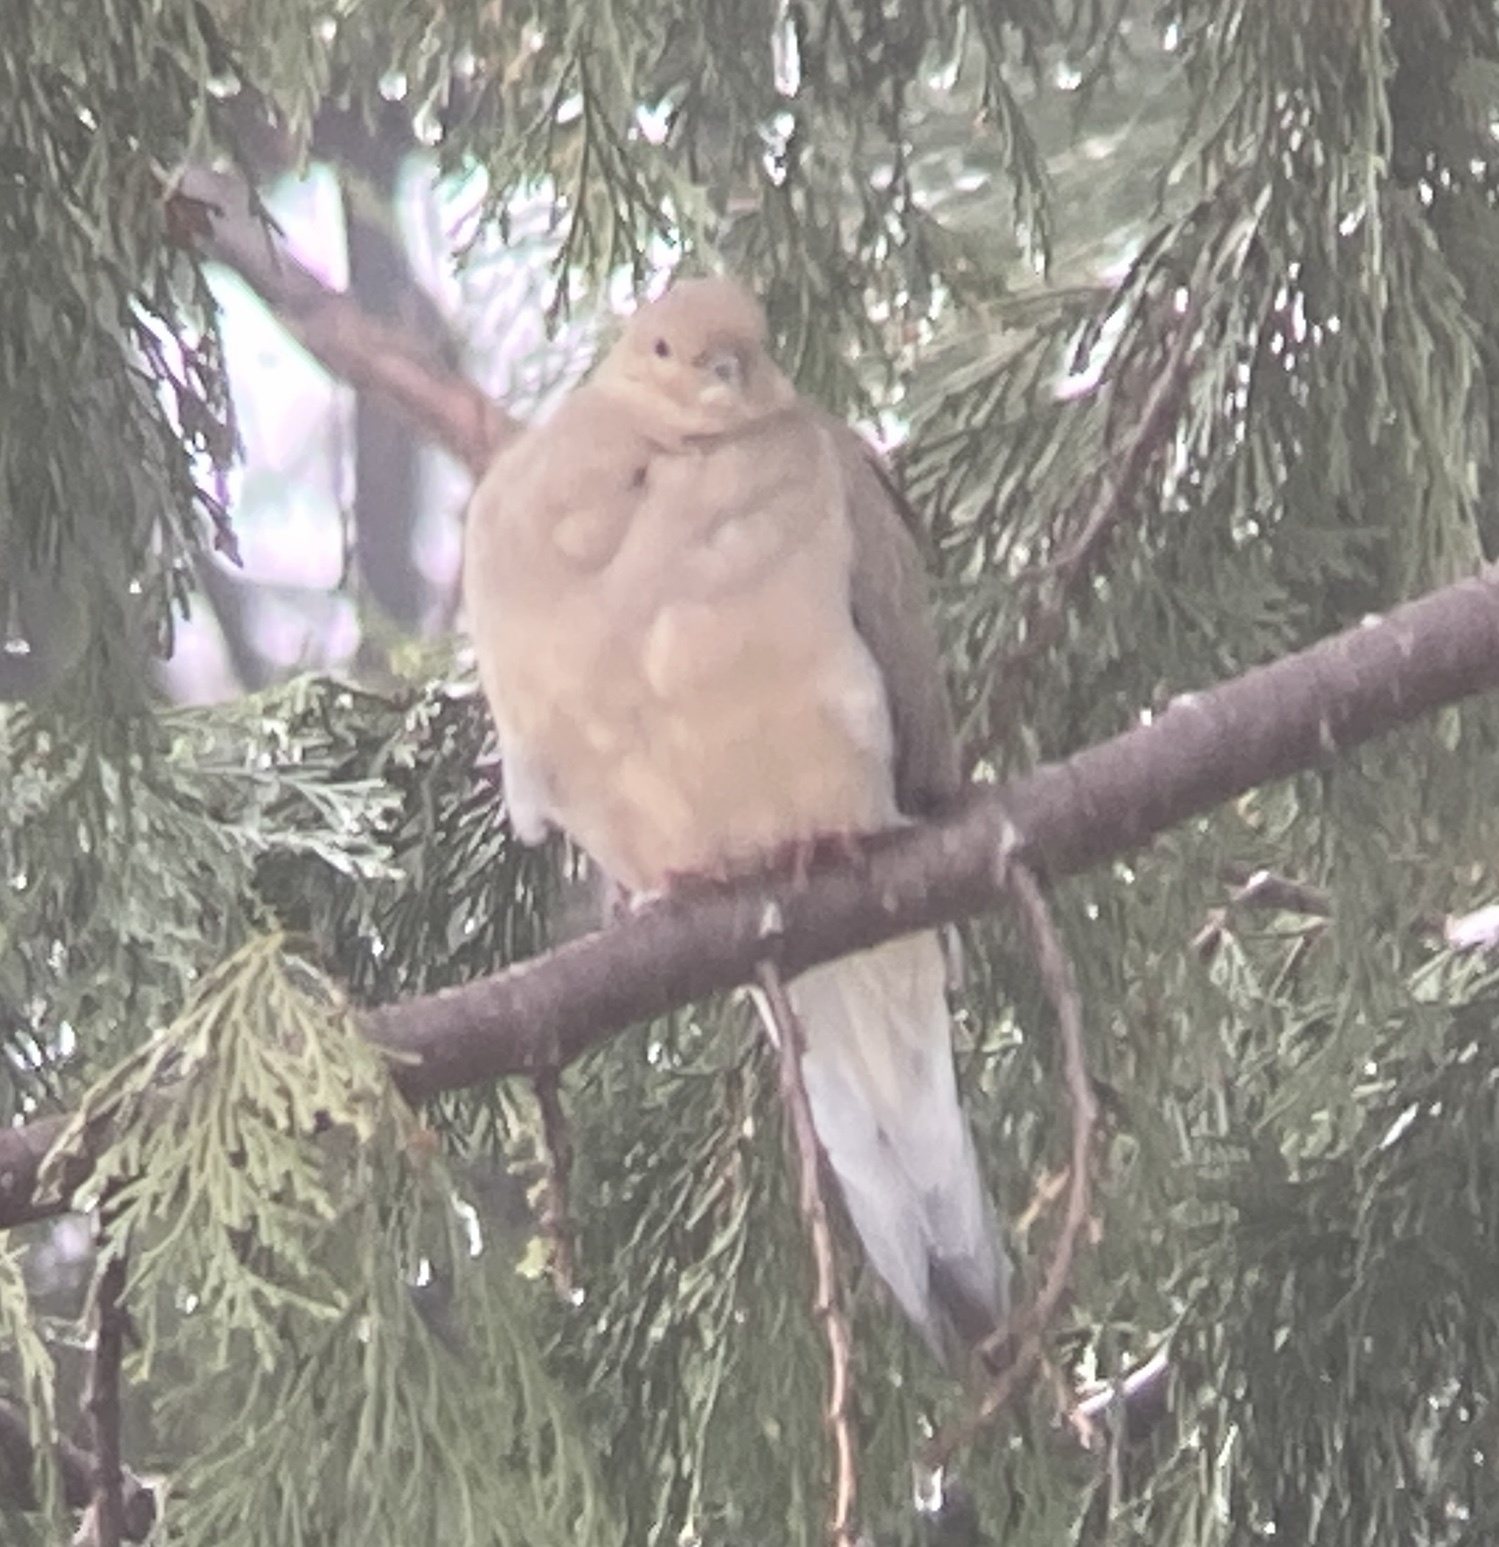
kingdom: Animalia
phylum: Chordata
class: Aves
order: Columbiformes
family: Columbidae
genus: Zenaida
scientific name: Zenaida macroura
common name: Mourning dove
